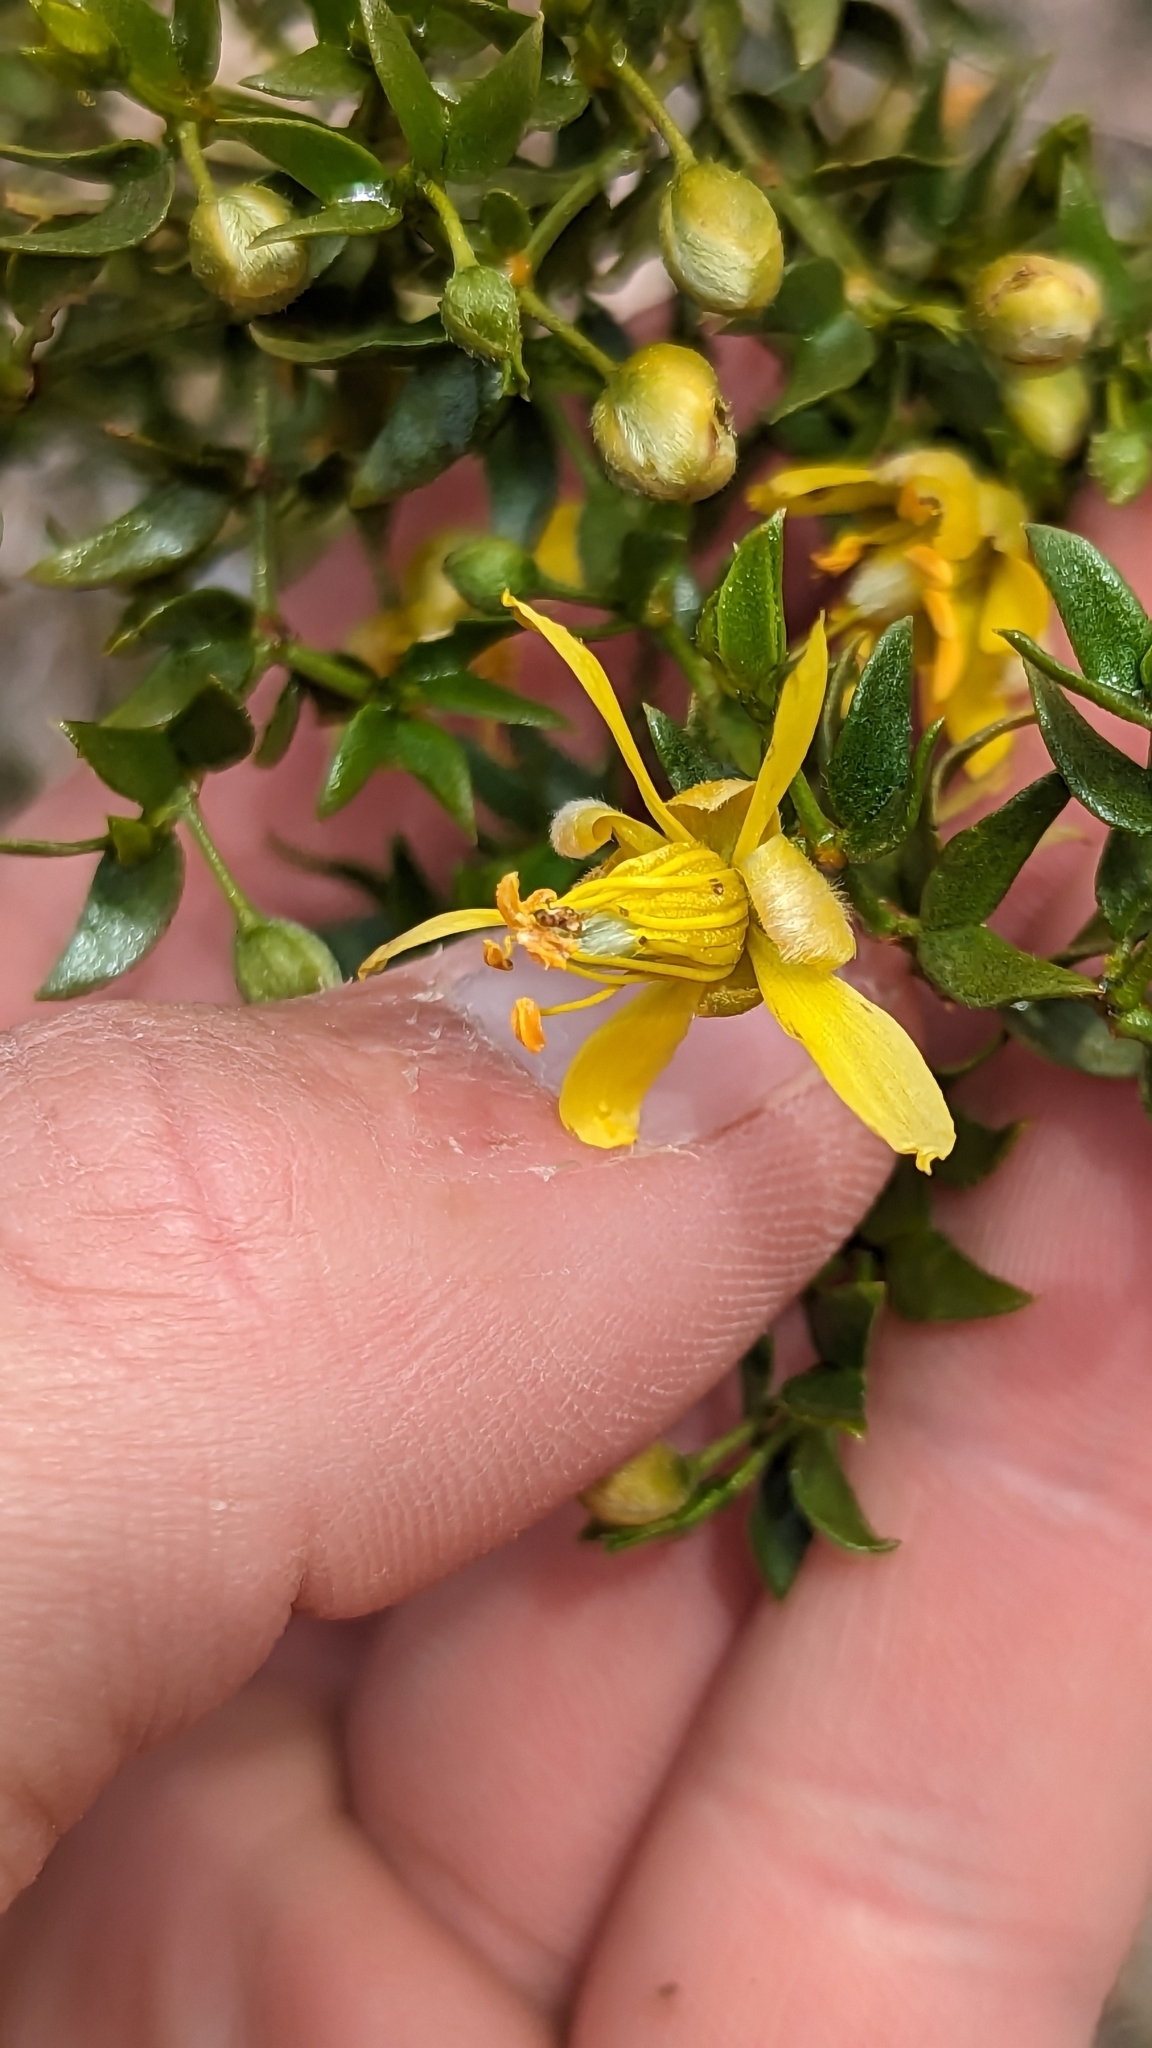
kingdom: Plantae
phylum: Tracheophyta
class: Magnoliopsida
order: Zygophyllales
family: Zygophyllaceae
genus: Larrea
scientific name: Larrea tridentata
